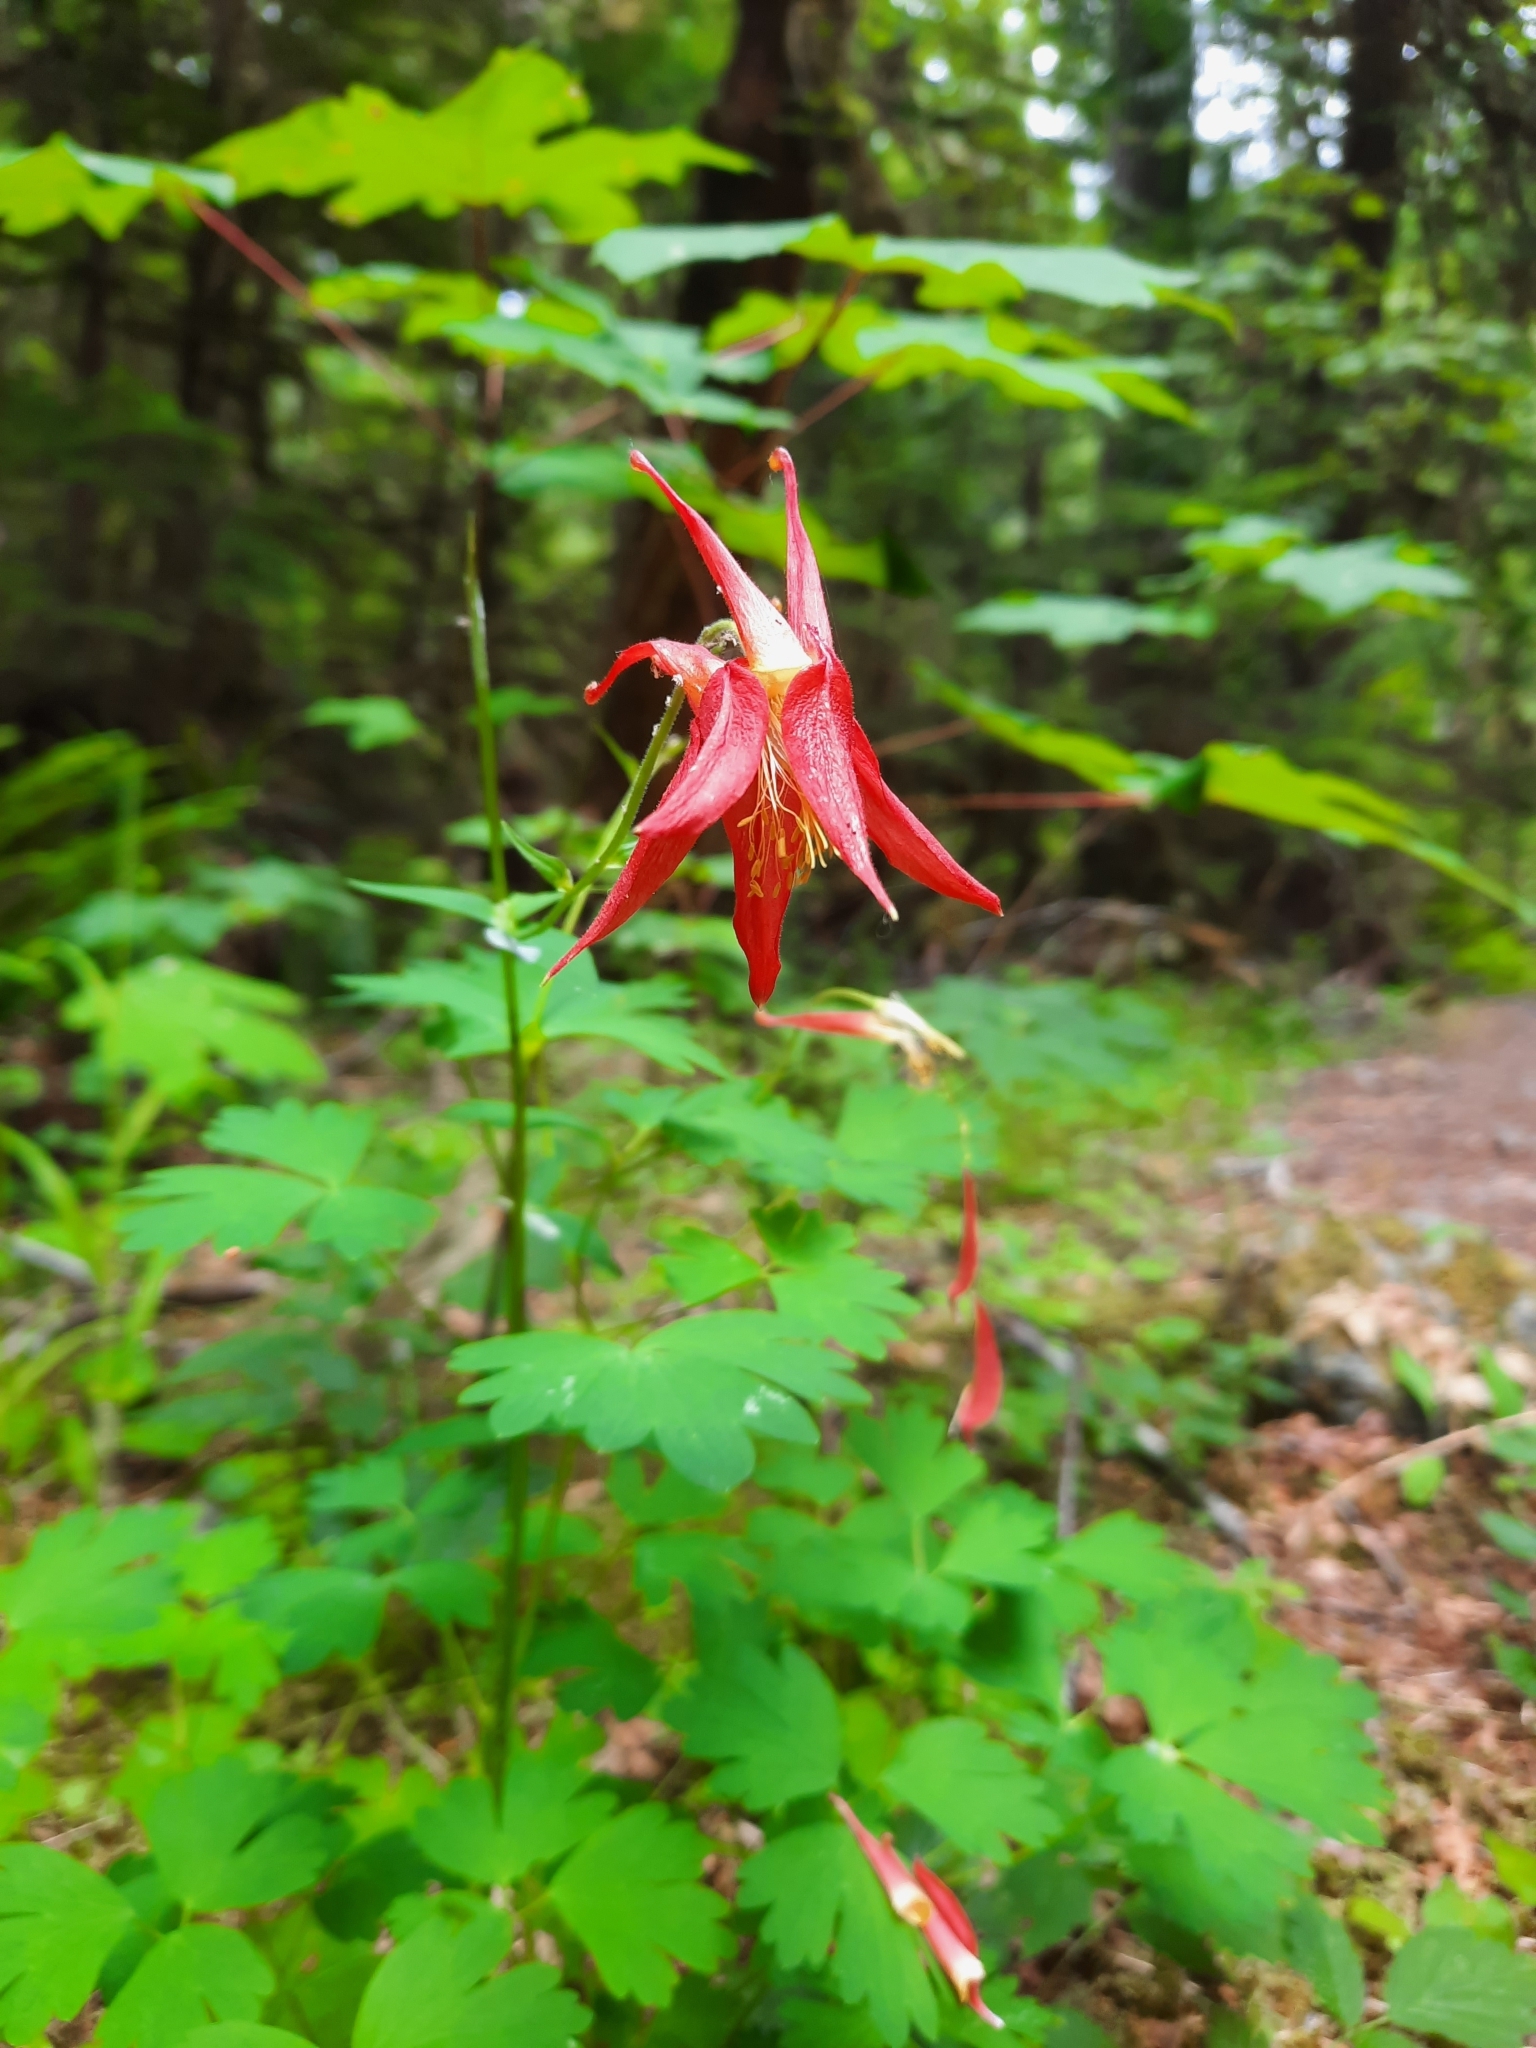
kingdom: Plantae
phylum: Tracheophyta
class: Magnoliopsida
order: Ranunculales
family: Ranunculaceae
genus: Aquilegia
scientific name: Aquilegia formosa
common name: Sitka columbine
